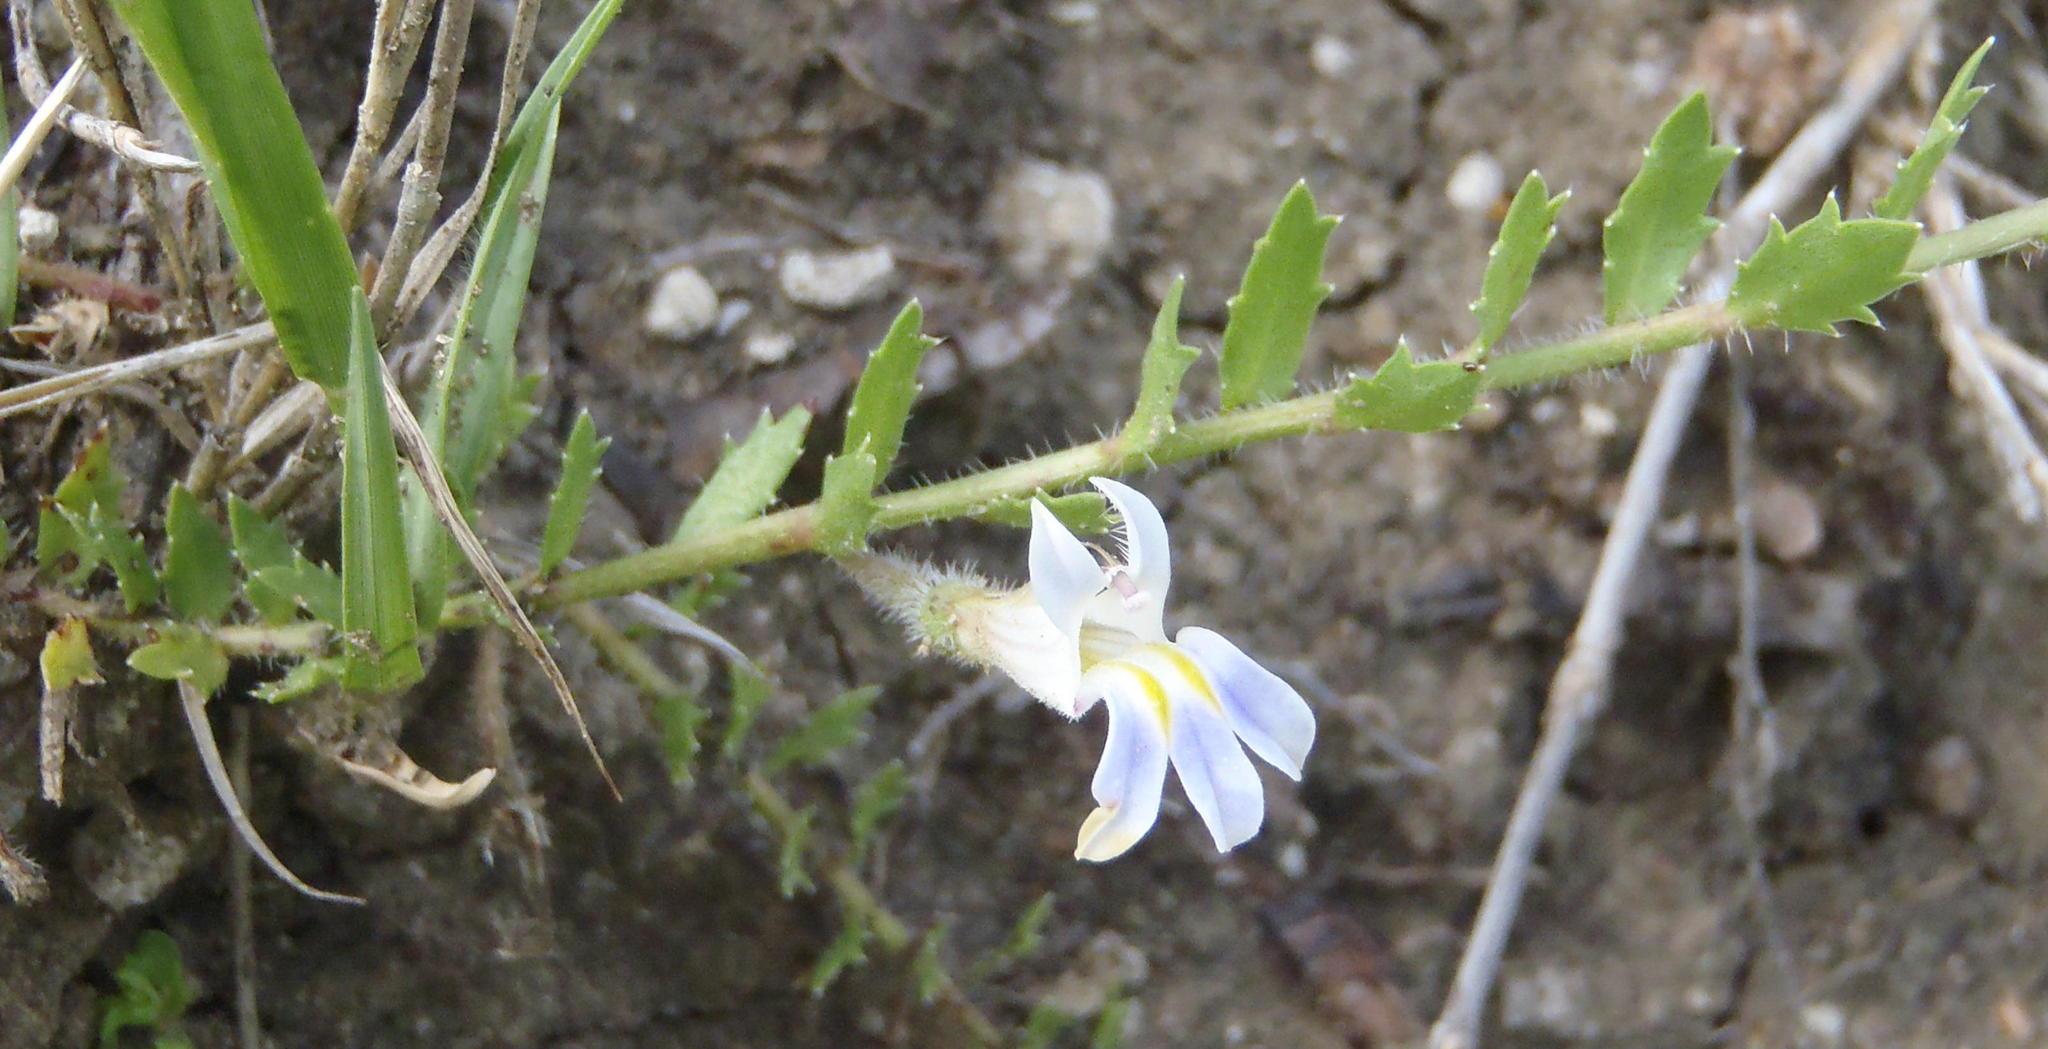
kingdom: Plantae
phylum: Tracheophyta
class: Magnoliopsida
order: Asterales
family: Campanulaceae
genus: Lobelia
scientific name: Lobelia thermalis
